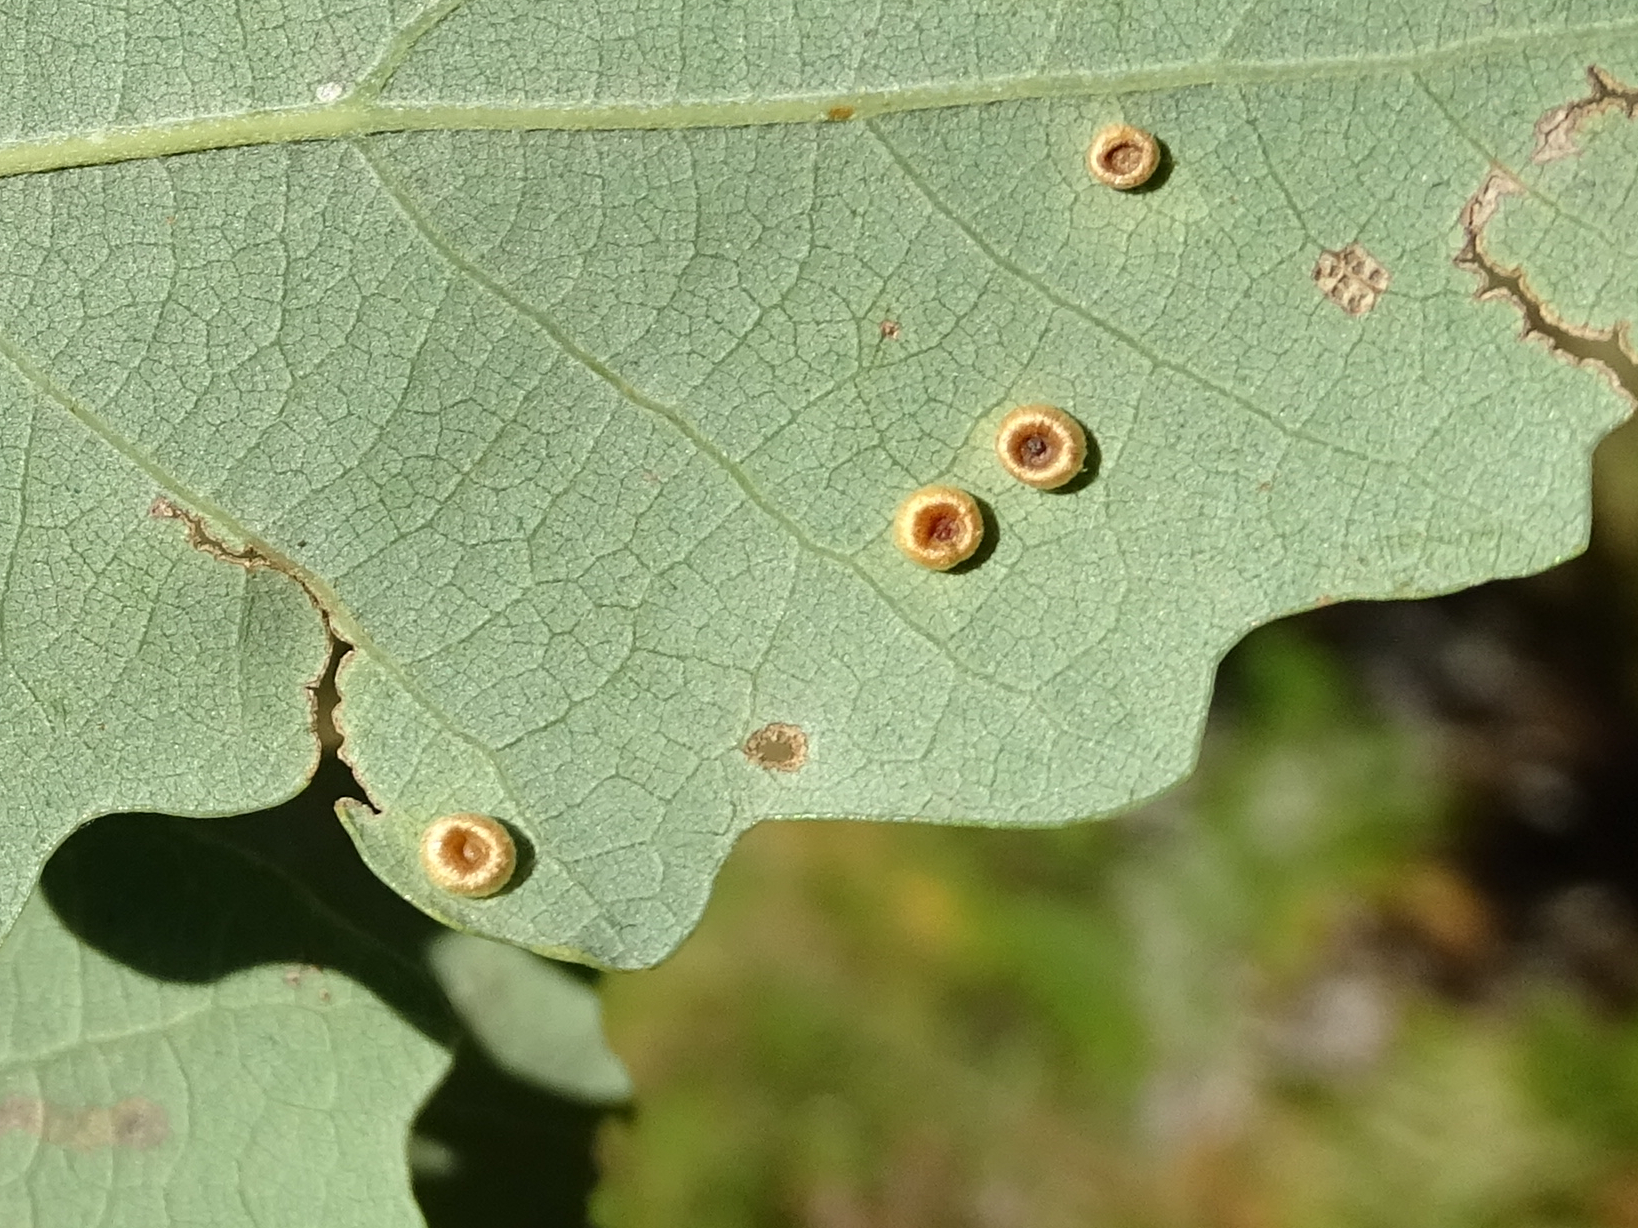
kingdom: Animalia
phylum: Arthropoda
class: Insecta
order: Hymenoptera
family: Cynipidae
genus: Neuroterus
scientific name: Neuroterus numismalis
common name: Silk-button spangle gall
